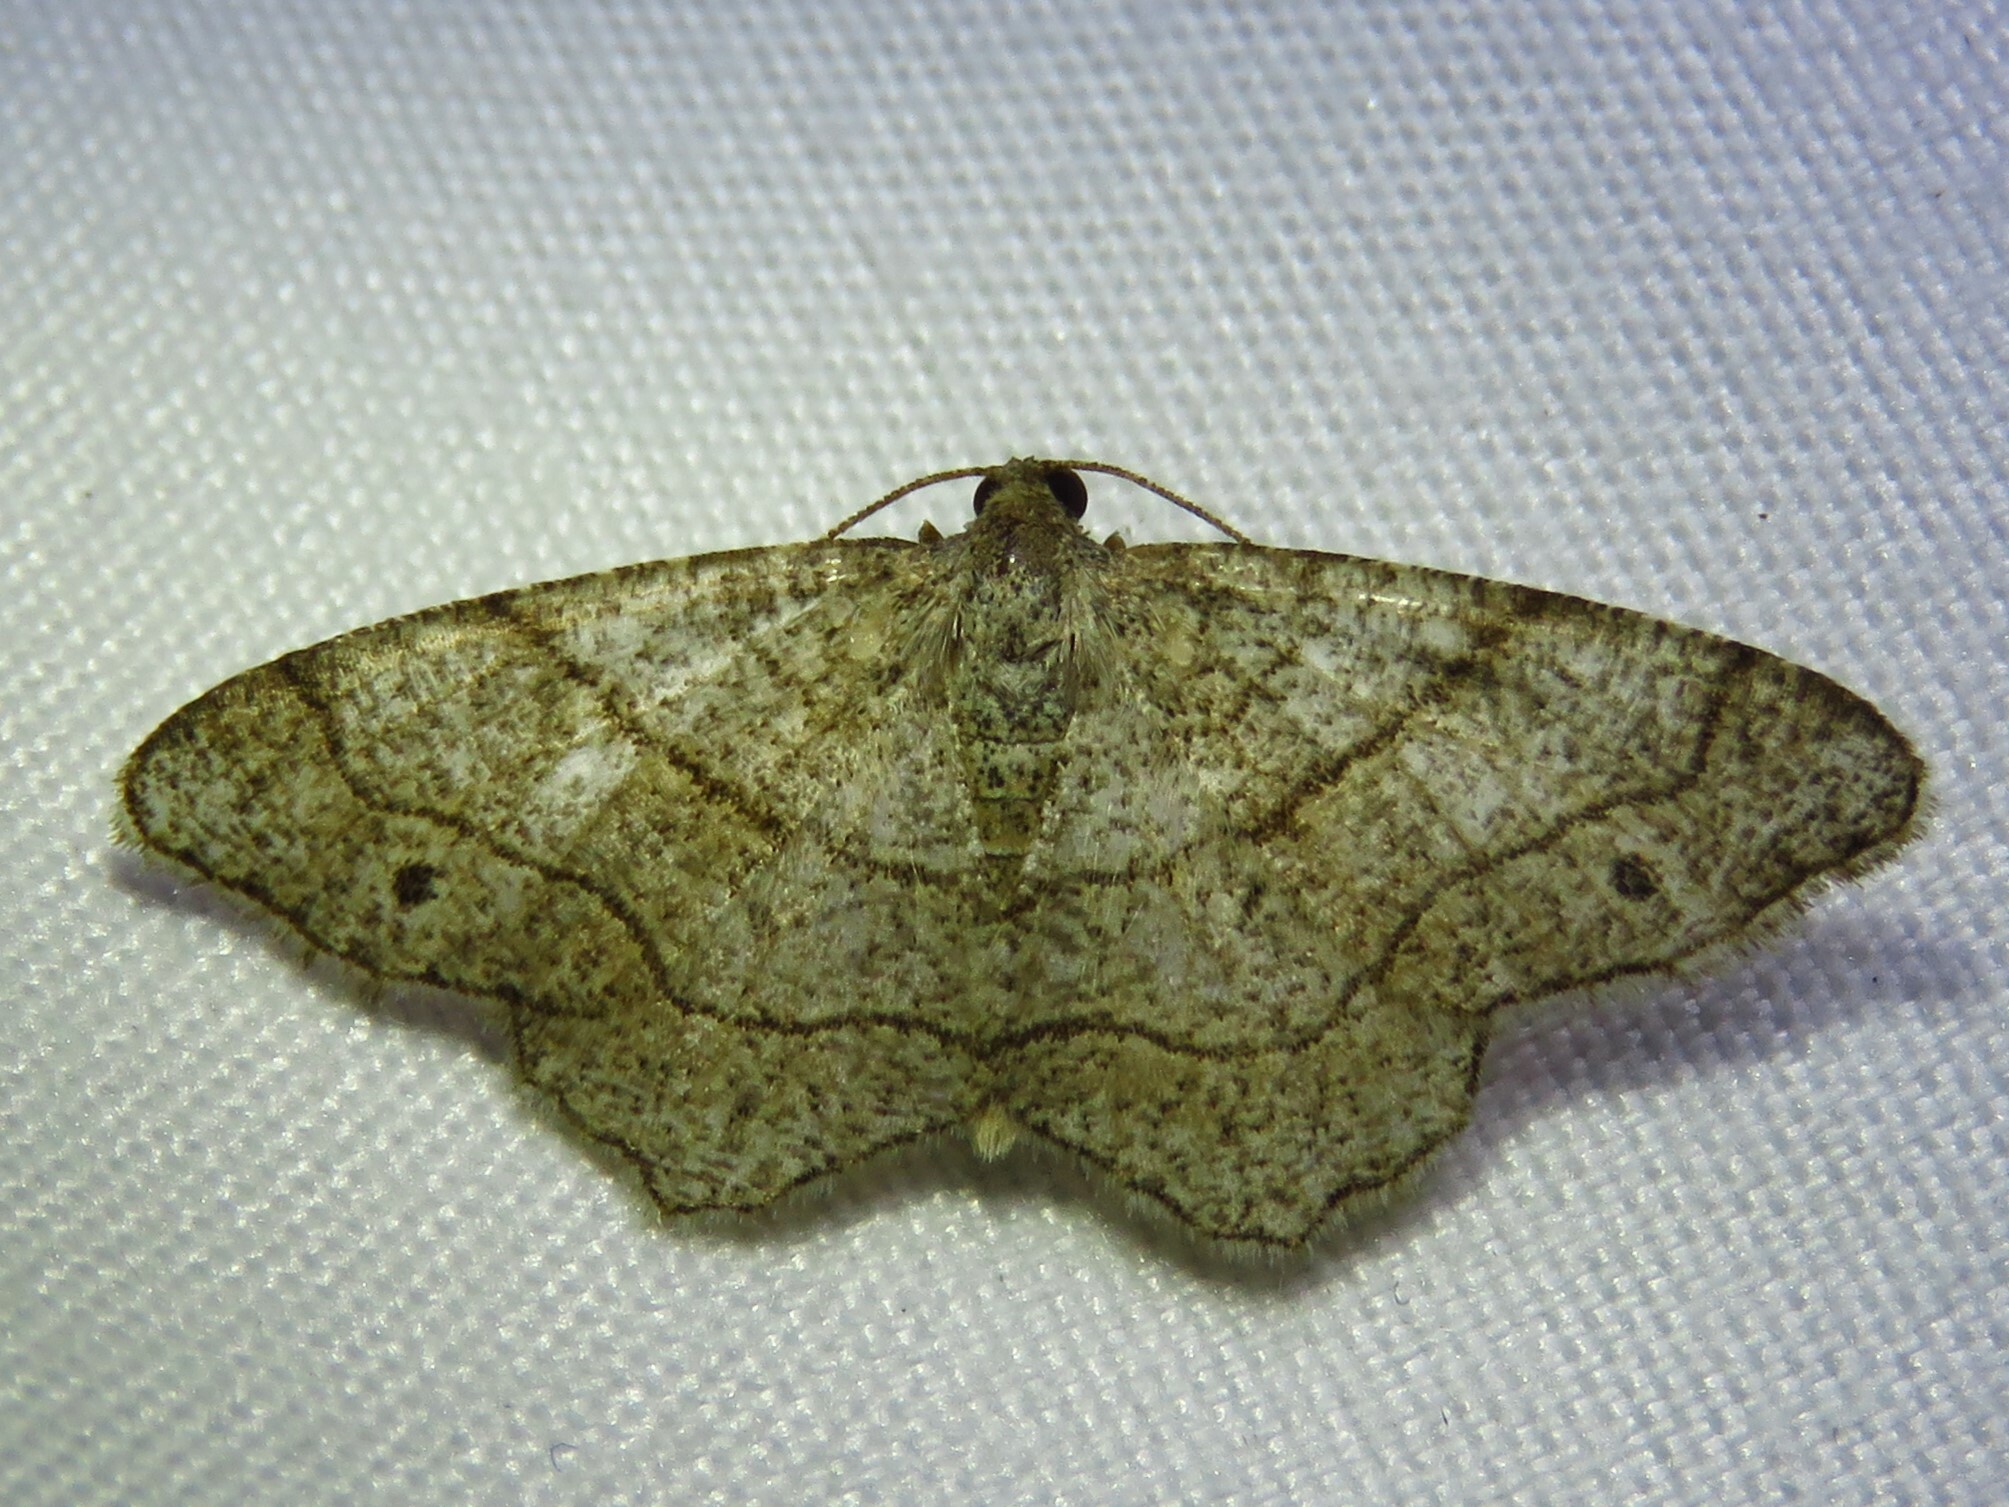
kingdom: Animalia
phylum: Arthropoda
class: Insecta
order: Lepidoptera
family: Geometridae
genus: Trigrammia
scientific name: Trigrammia quadrinotaria
